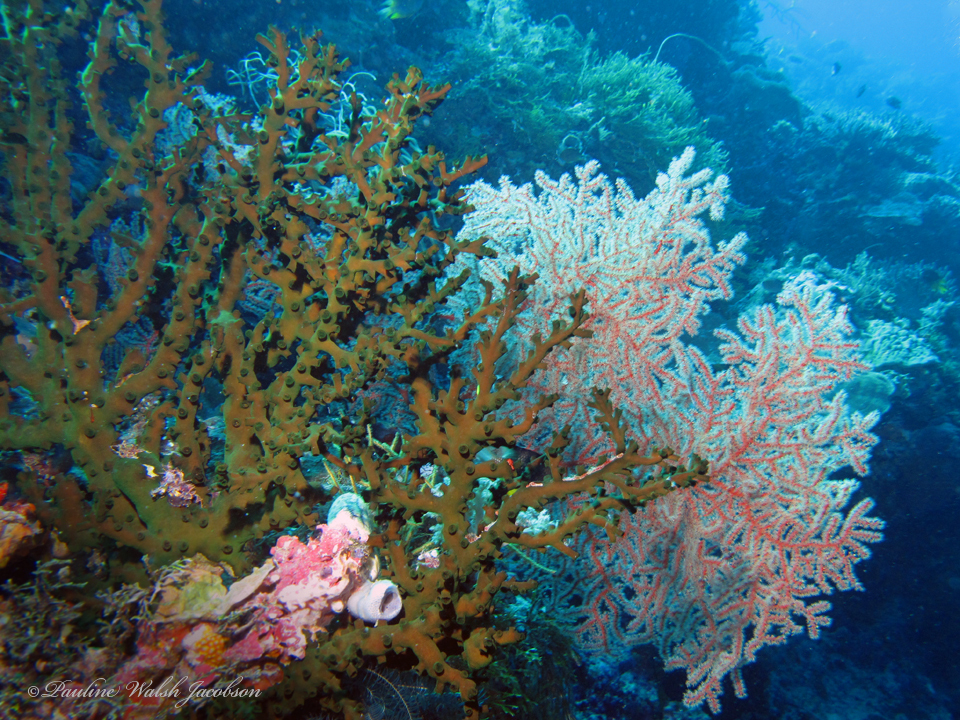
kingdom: Animalia
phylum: Cnidaria
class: Anthozoa
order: Scleractinia
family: Dendrophylliidae
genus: Tubastraea
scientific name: Tubastraea micranthus
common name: Black sun coral
